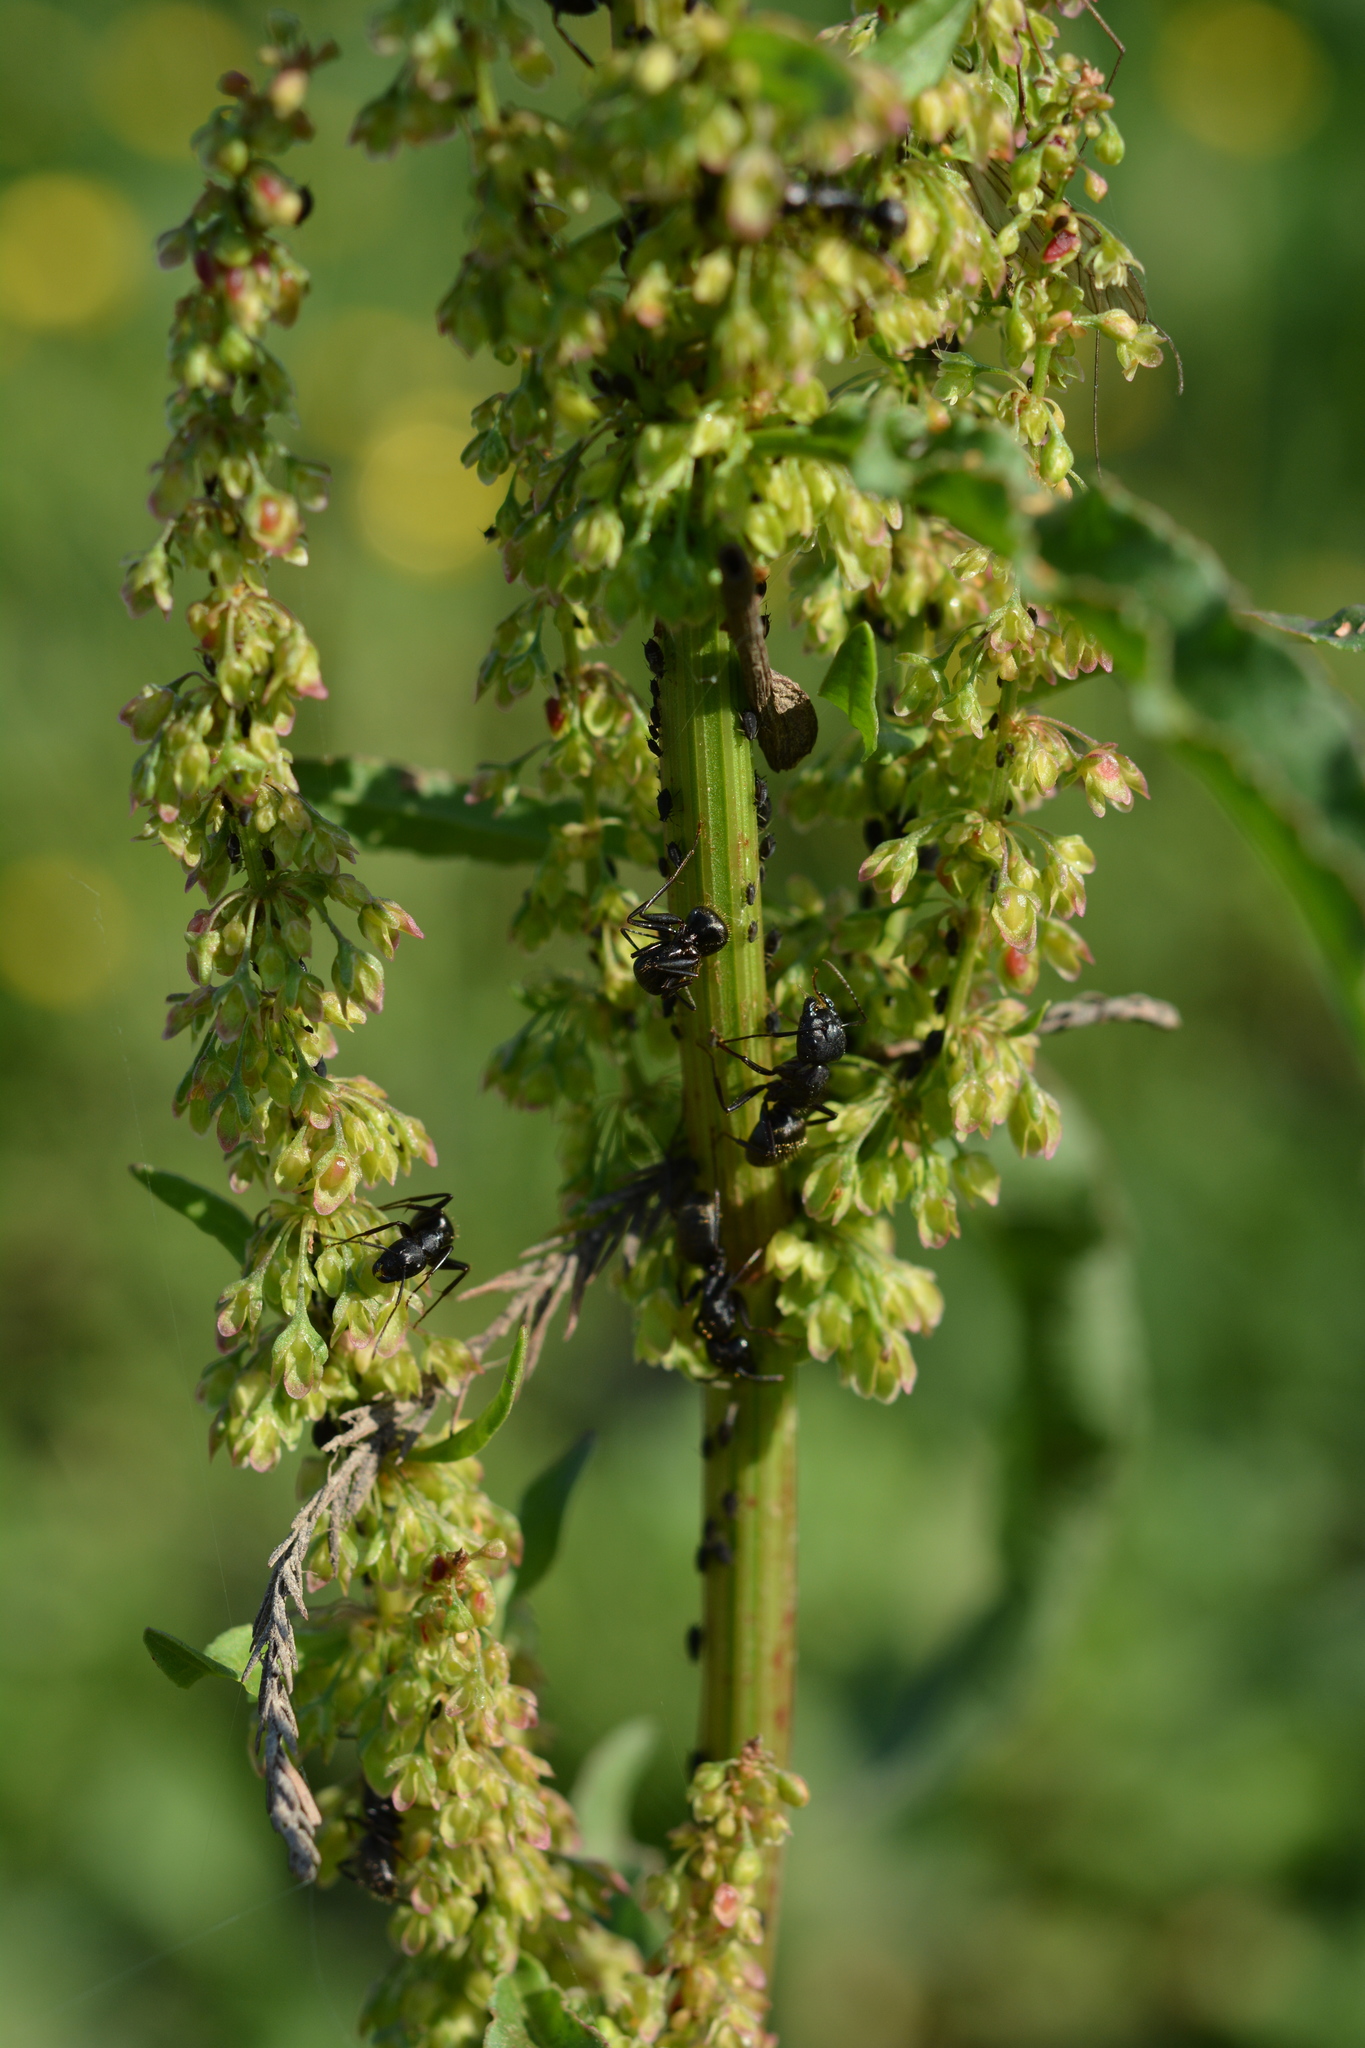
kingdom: Animalia
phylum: Arthropoda
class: Insecta
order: Hymenoptera
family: Formicidae
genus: Camponotus
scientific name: Camponotus pennsylvanicus
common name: Black carpenter ant
